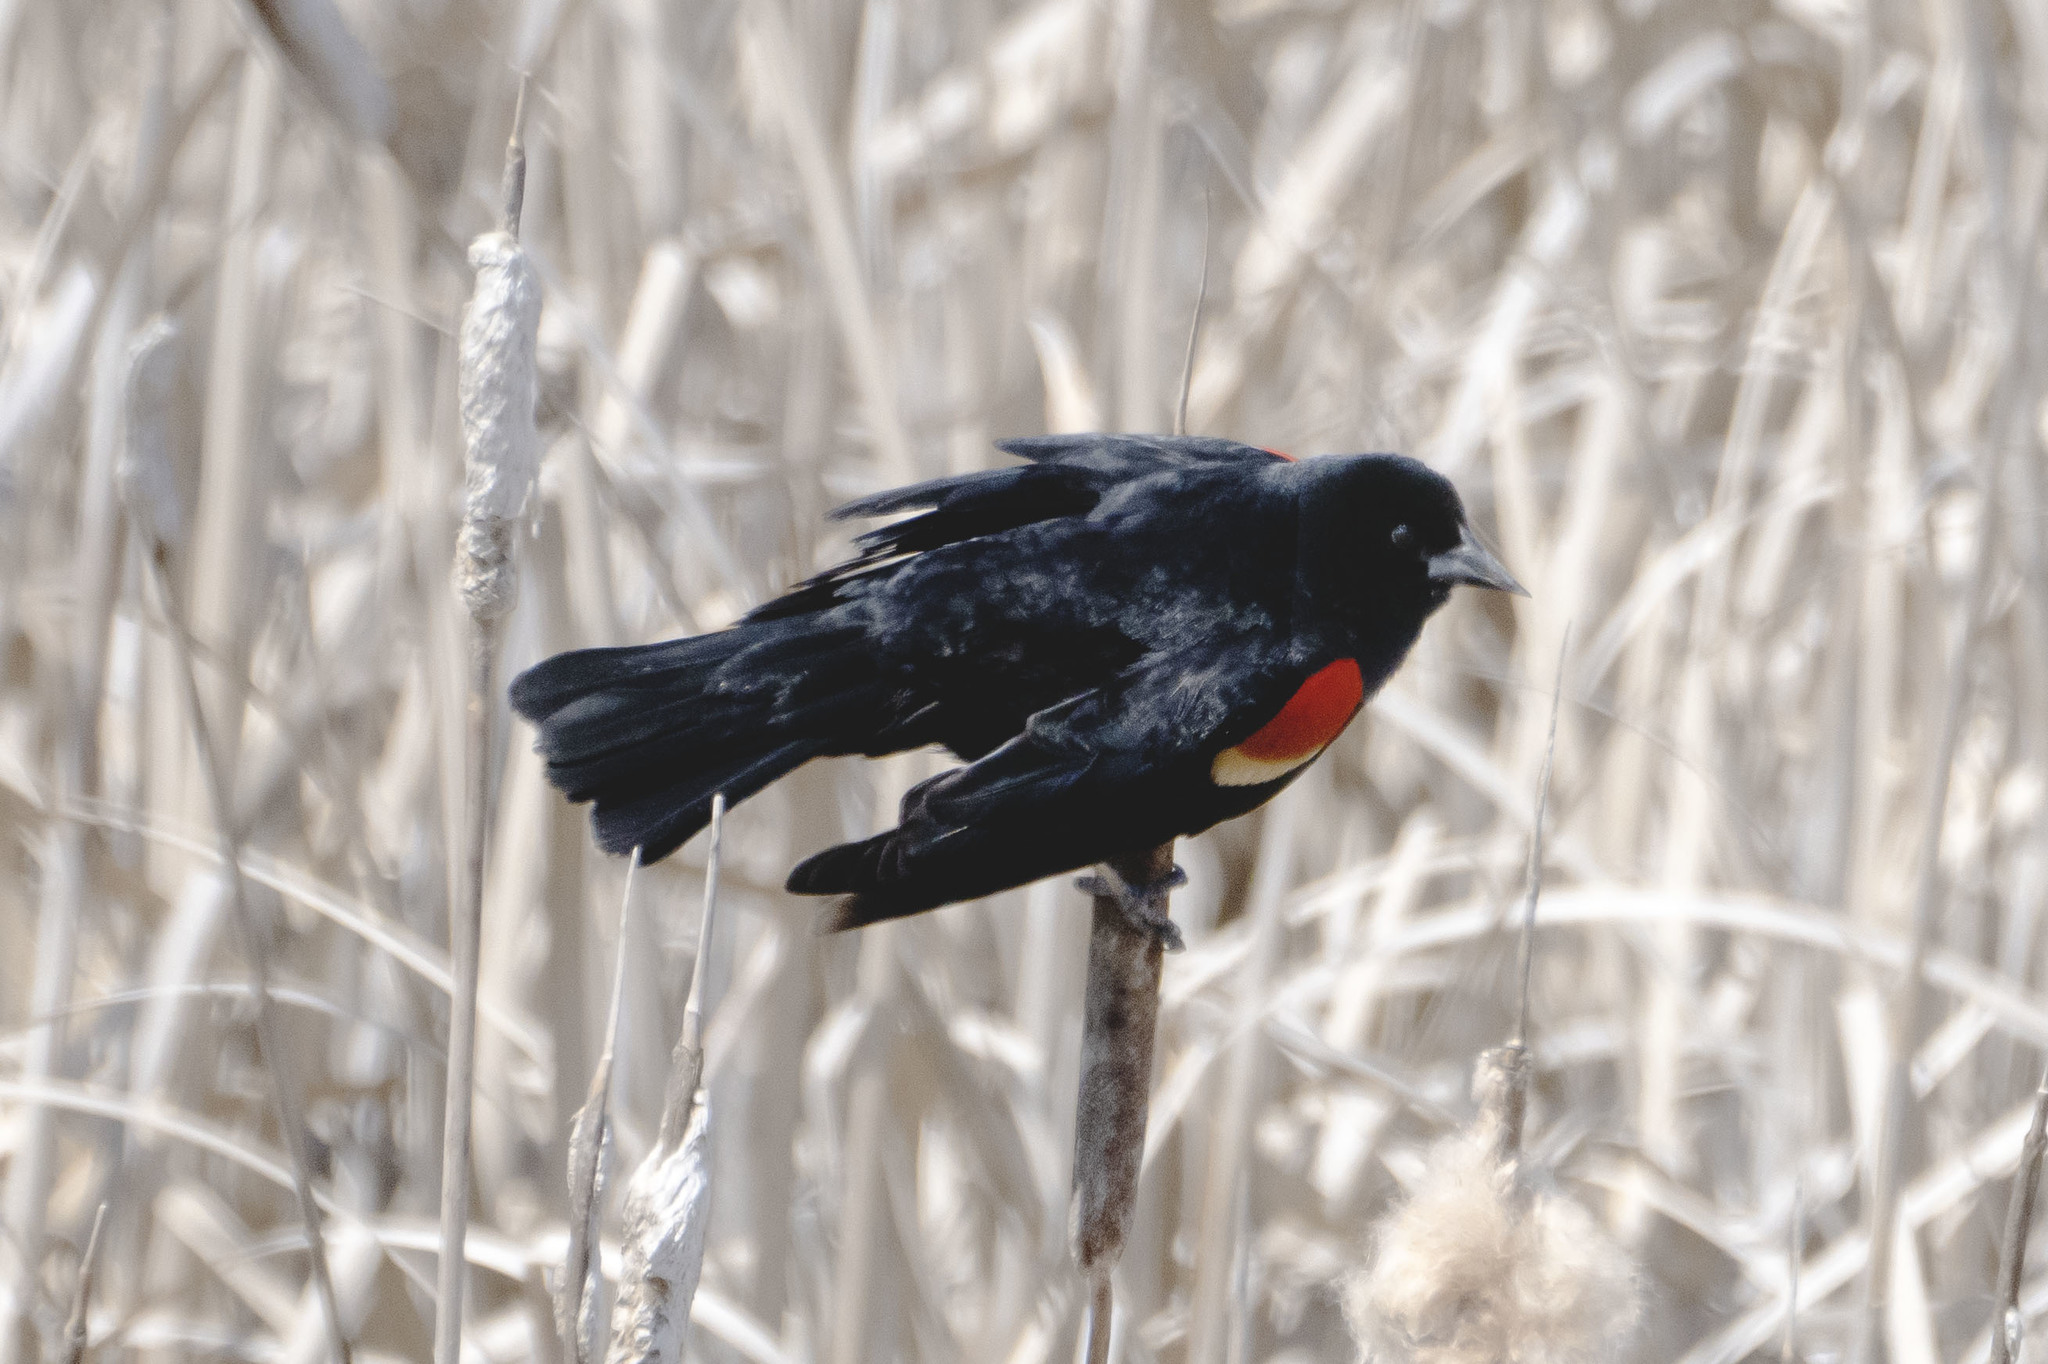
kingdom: Animalia
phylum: Chordata
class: Aves
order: Passeriformes
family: Icteridae
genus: Agelaius
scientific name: Agelaius phoeniceus
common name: Red-winged blackbird
